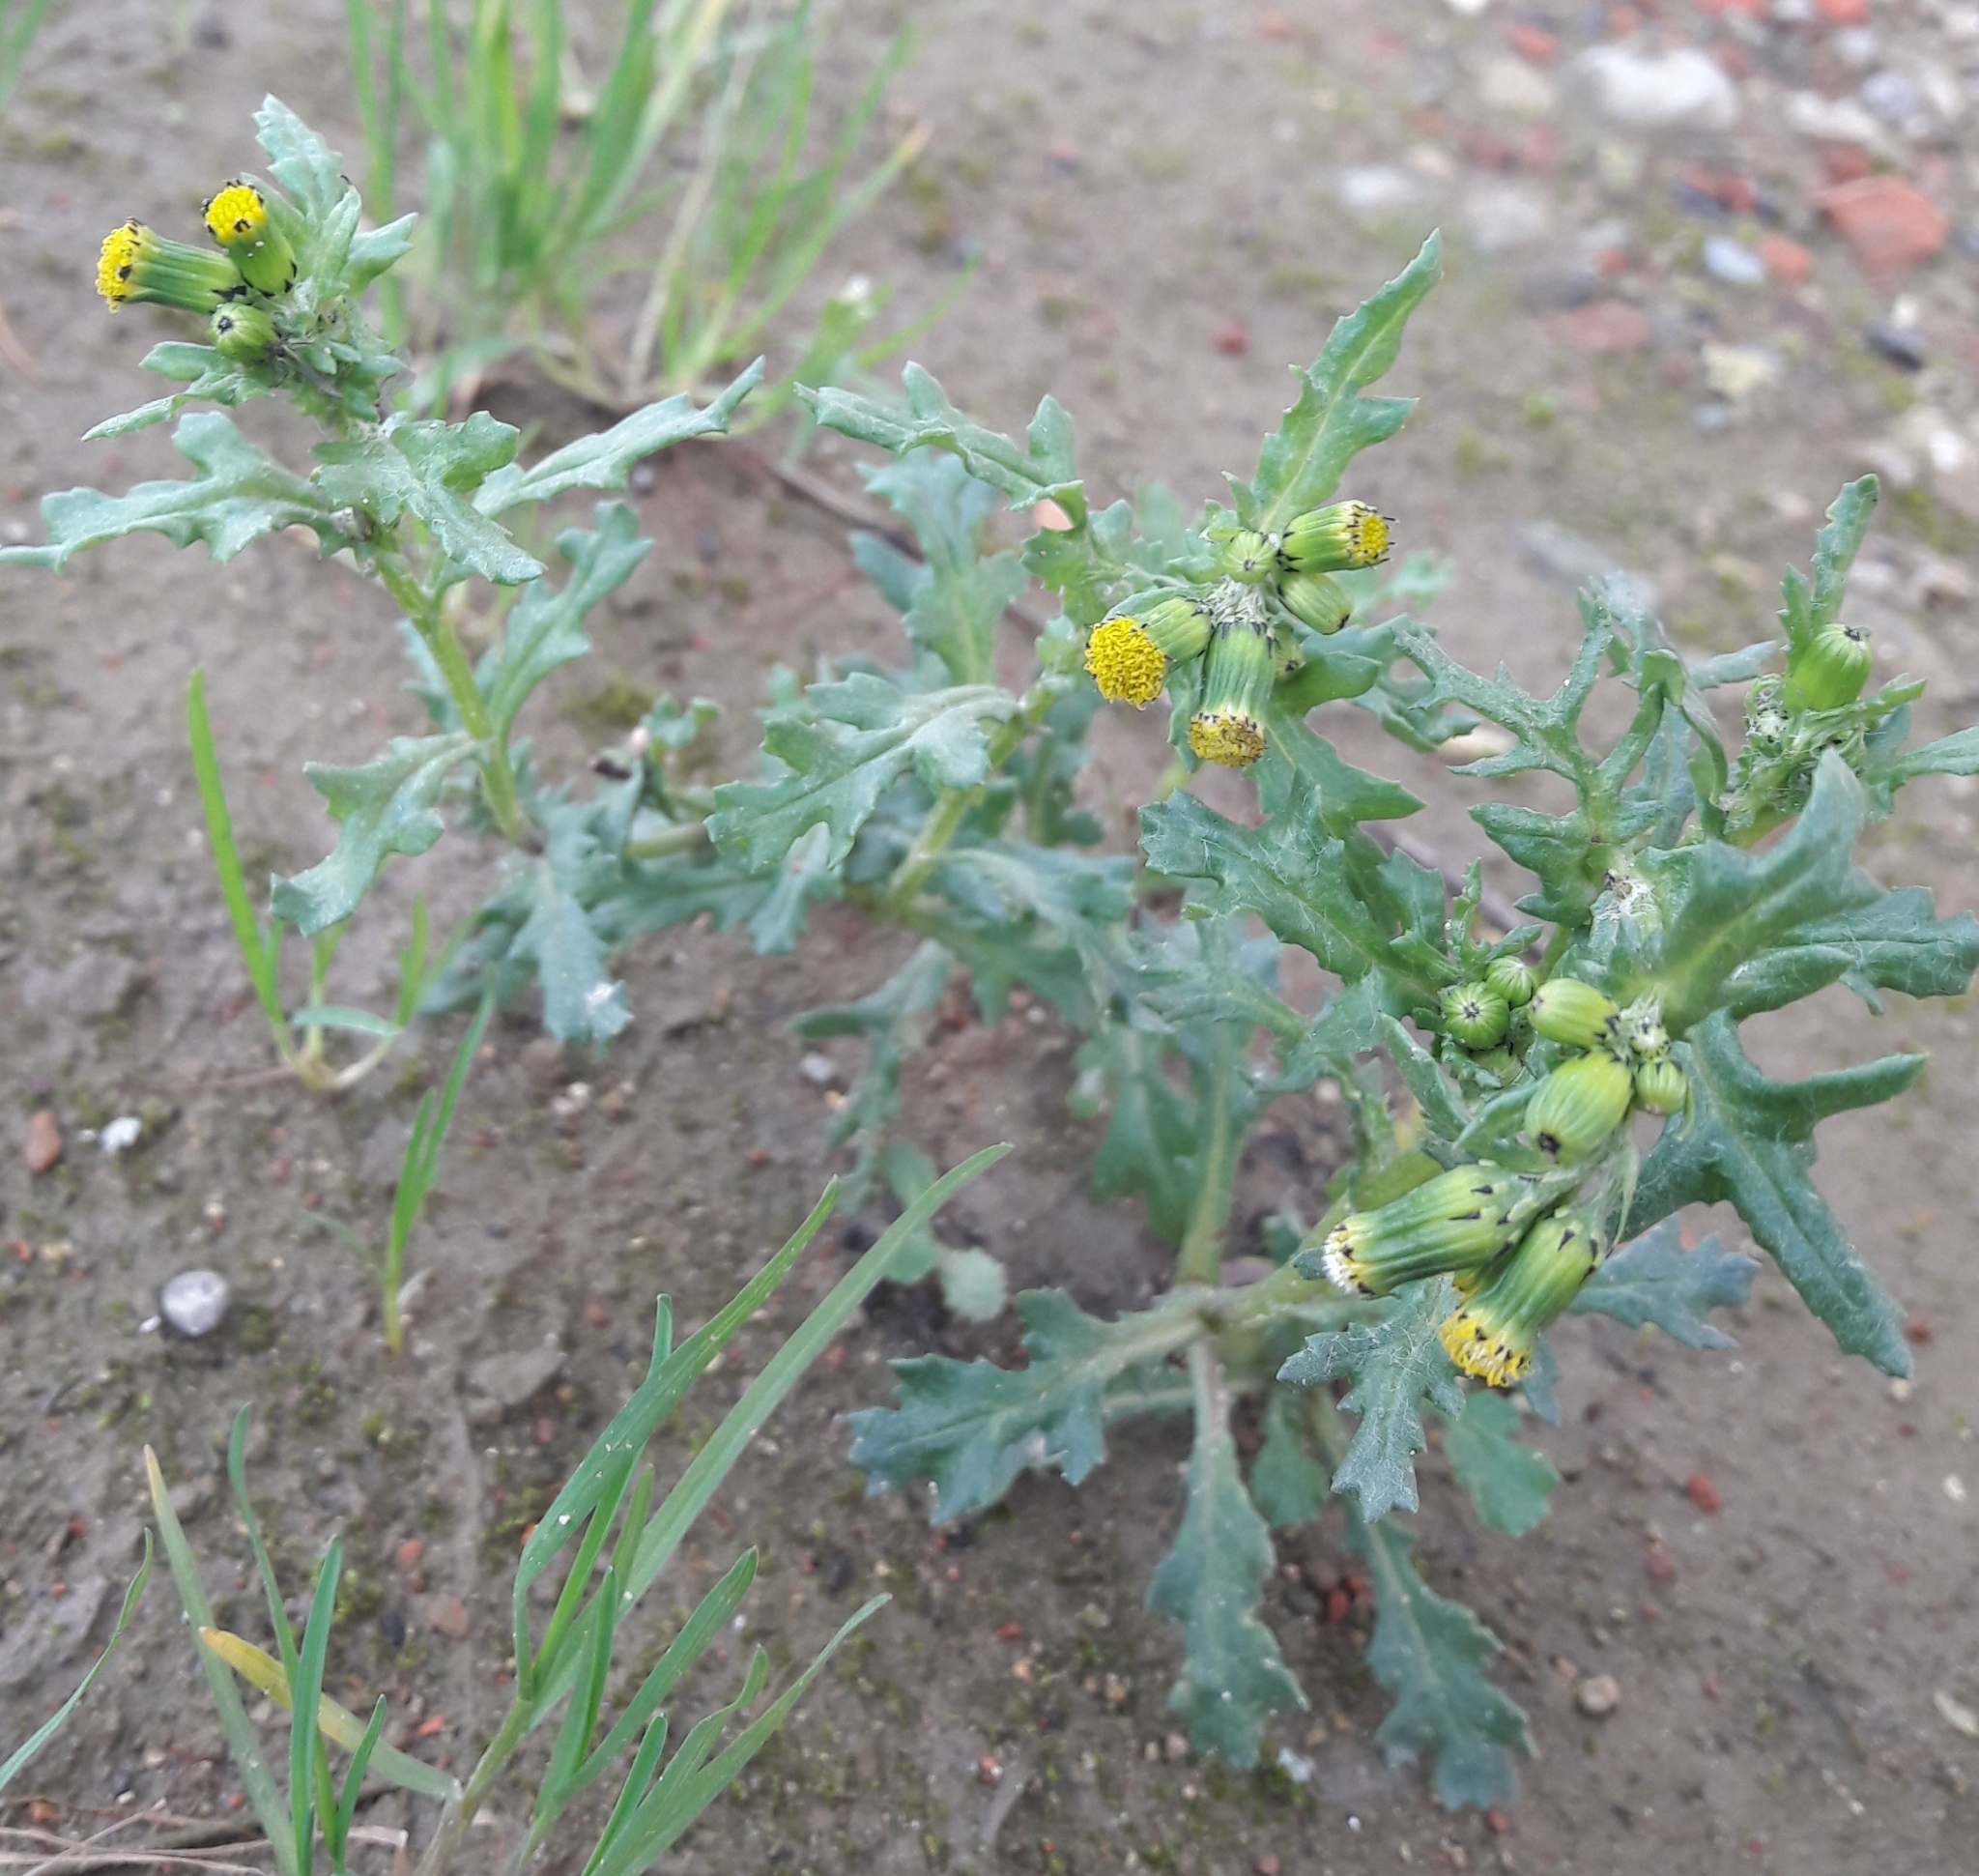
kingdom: Plantae
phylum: Tracheophyta
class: Magnoliopsida
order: Asterales
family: Asteraceae
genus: Senecio
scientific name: Senecio vulgaris
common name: Old-man-in-the-spring
